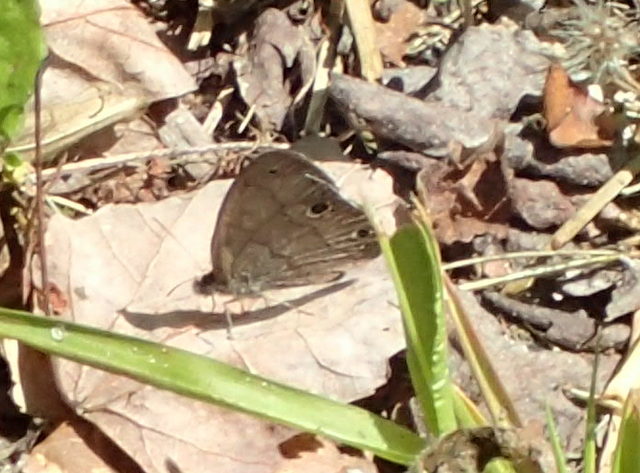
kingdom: Animalia
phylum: Arthropoda
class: Insecta
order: Lepidoptera
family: Nymphalidae
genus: Hermeuptychia
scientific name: Hermeuptychia hermes
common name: Hermes satyr
